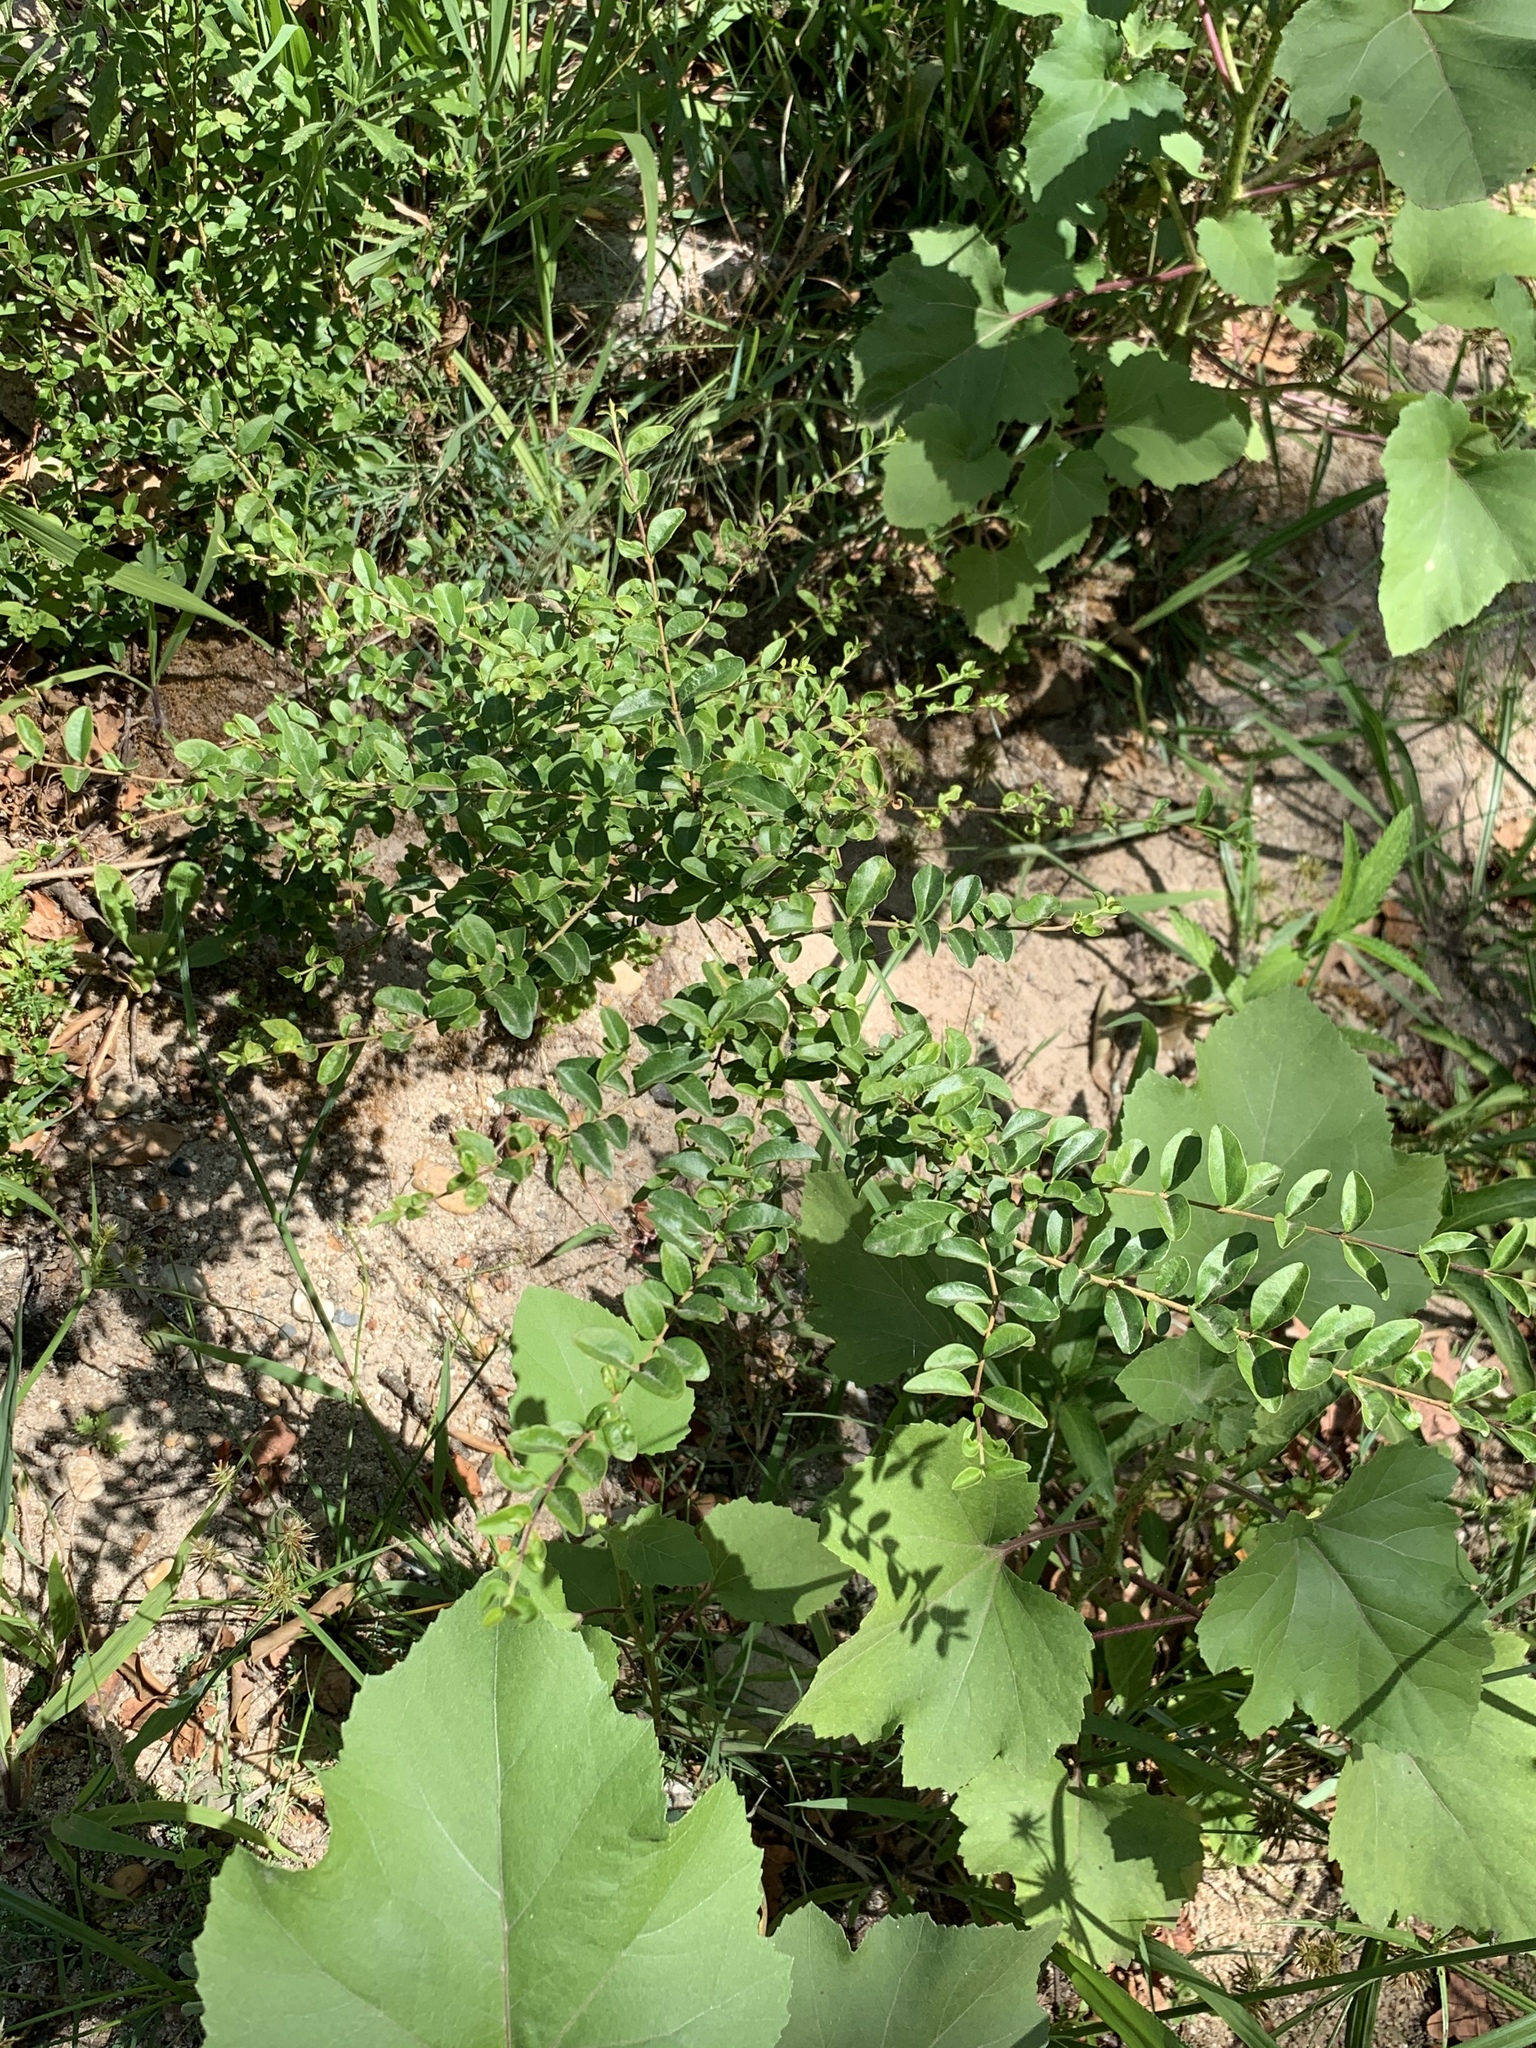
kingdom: Plantae
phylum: Tracheophyta
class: Magnoliopsida
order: Lamiales
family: Oleaceae
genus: Ligustrum
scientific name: Ligustrum sinense
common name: Chinese privet
